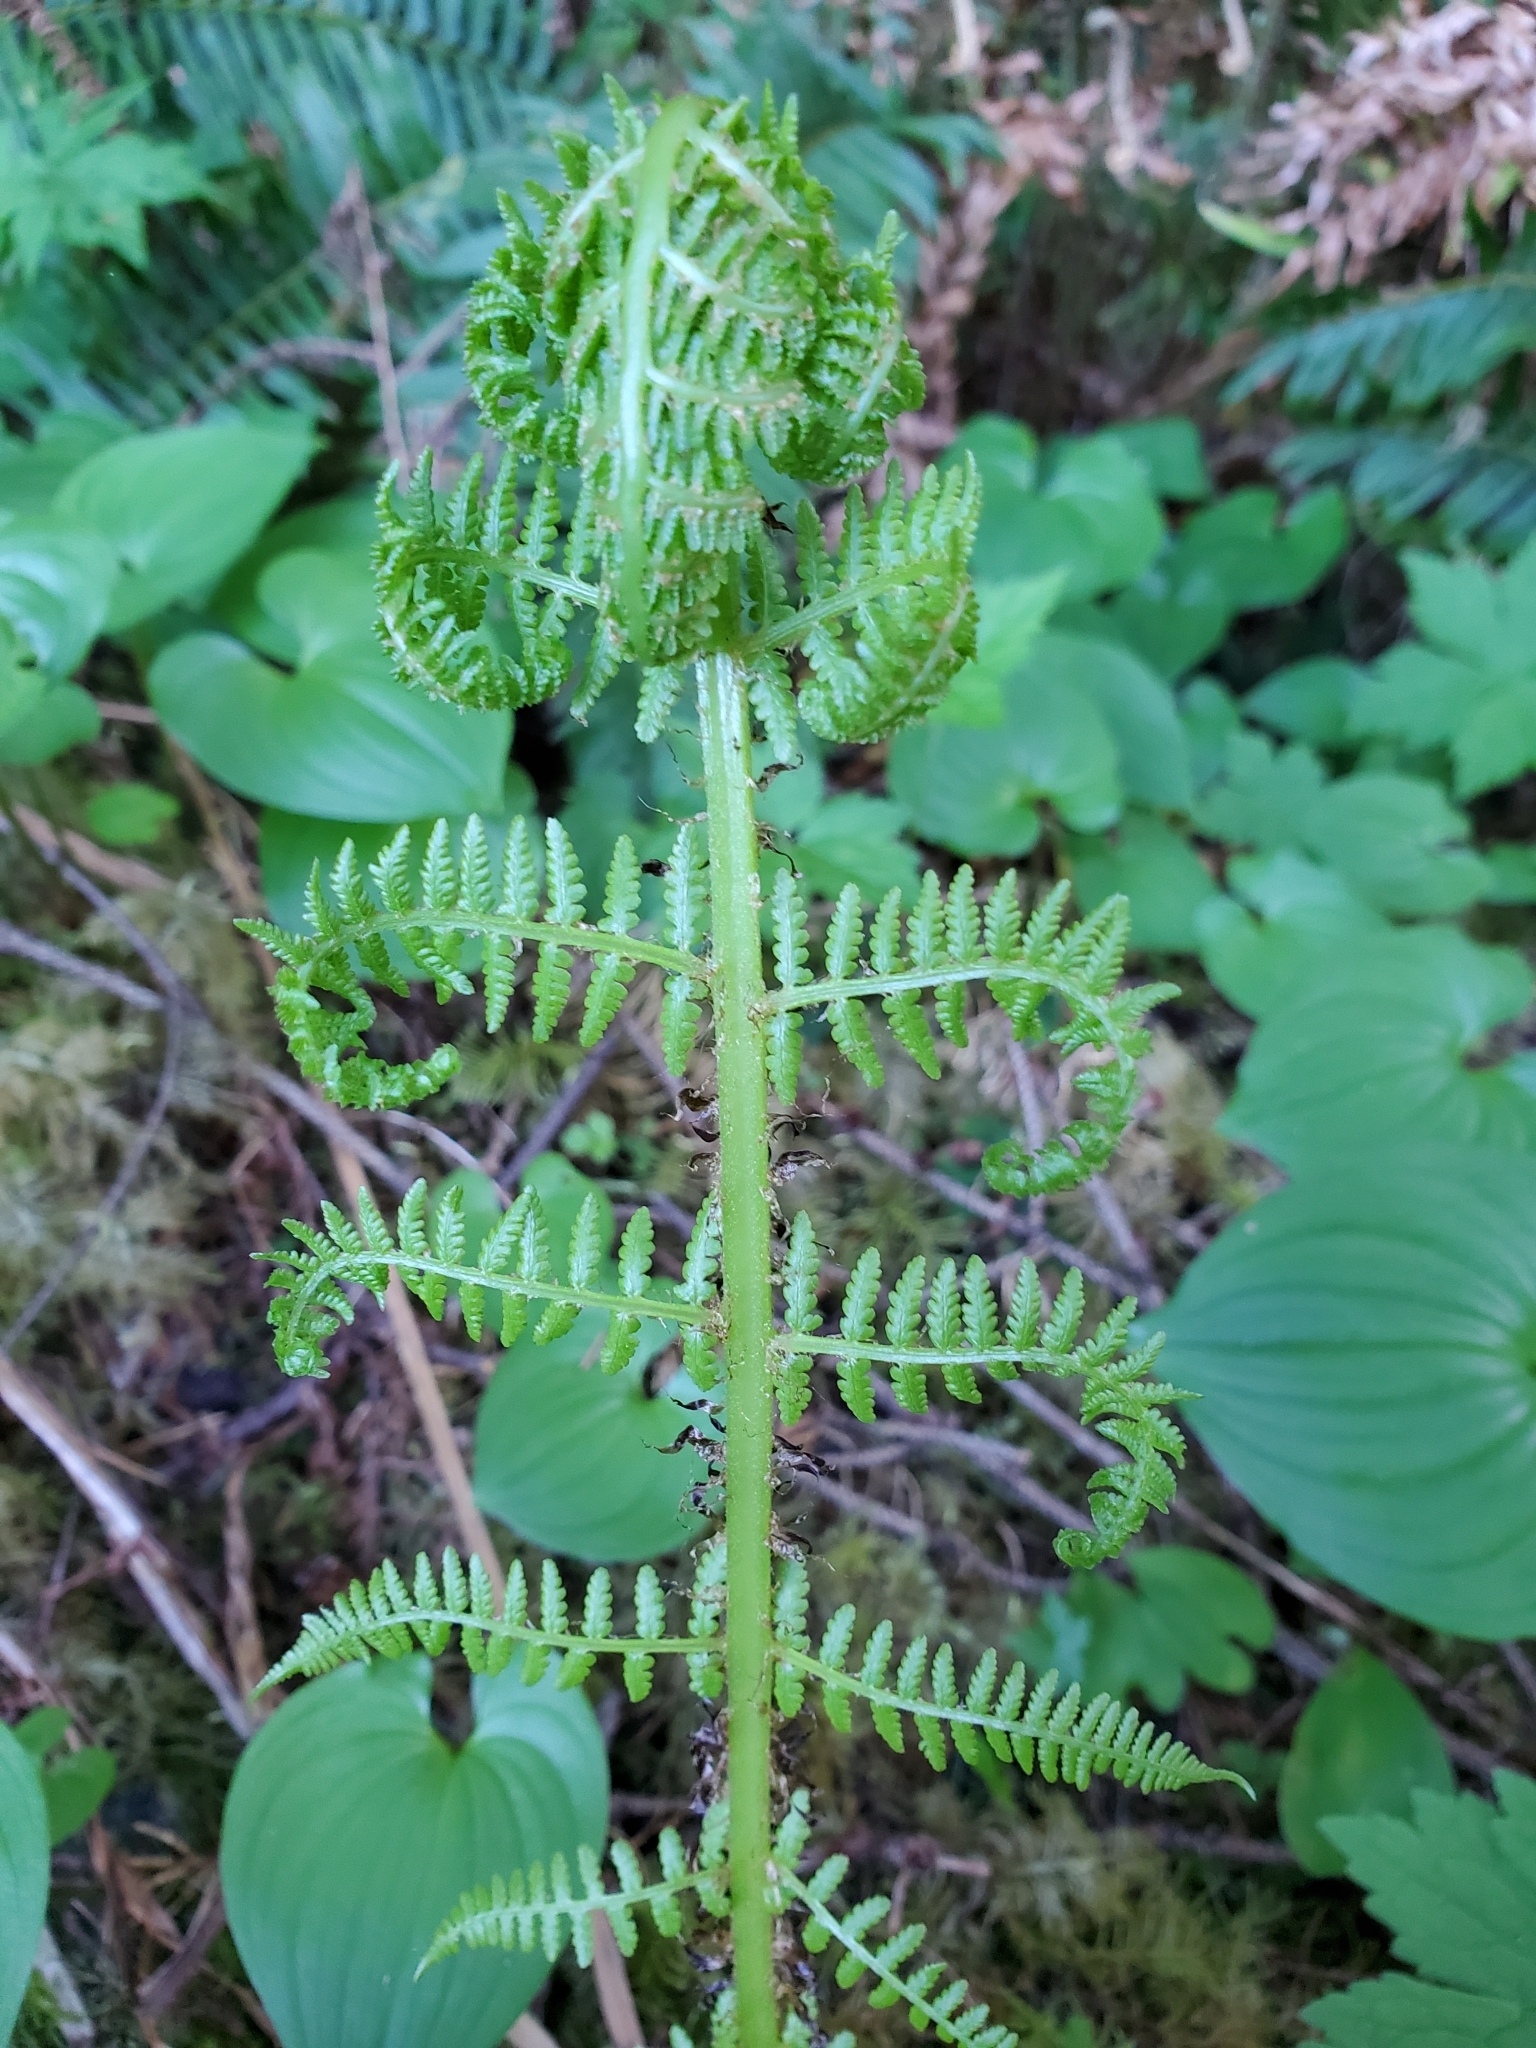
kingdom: Plantae
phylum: Tracheophyta
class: Polypodiopsida
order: Polypodiales
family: Athyriaceae
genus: Athyrium
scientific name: Athyrium filix-femina
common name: Lady fern
